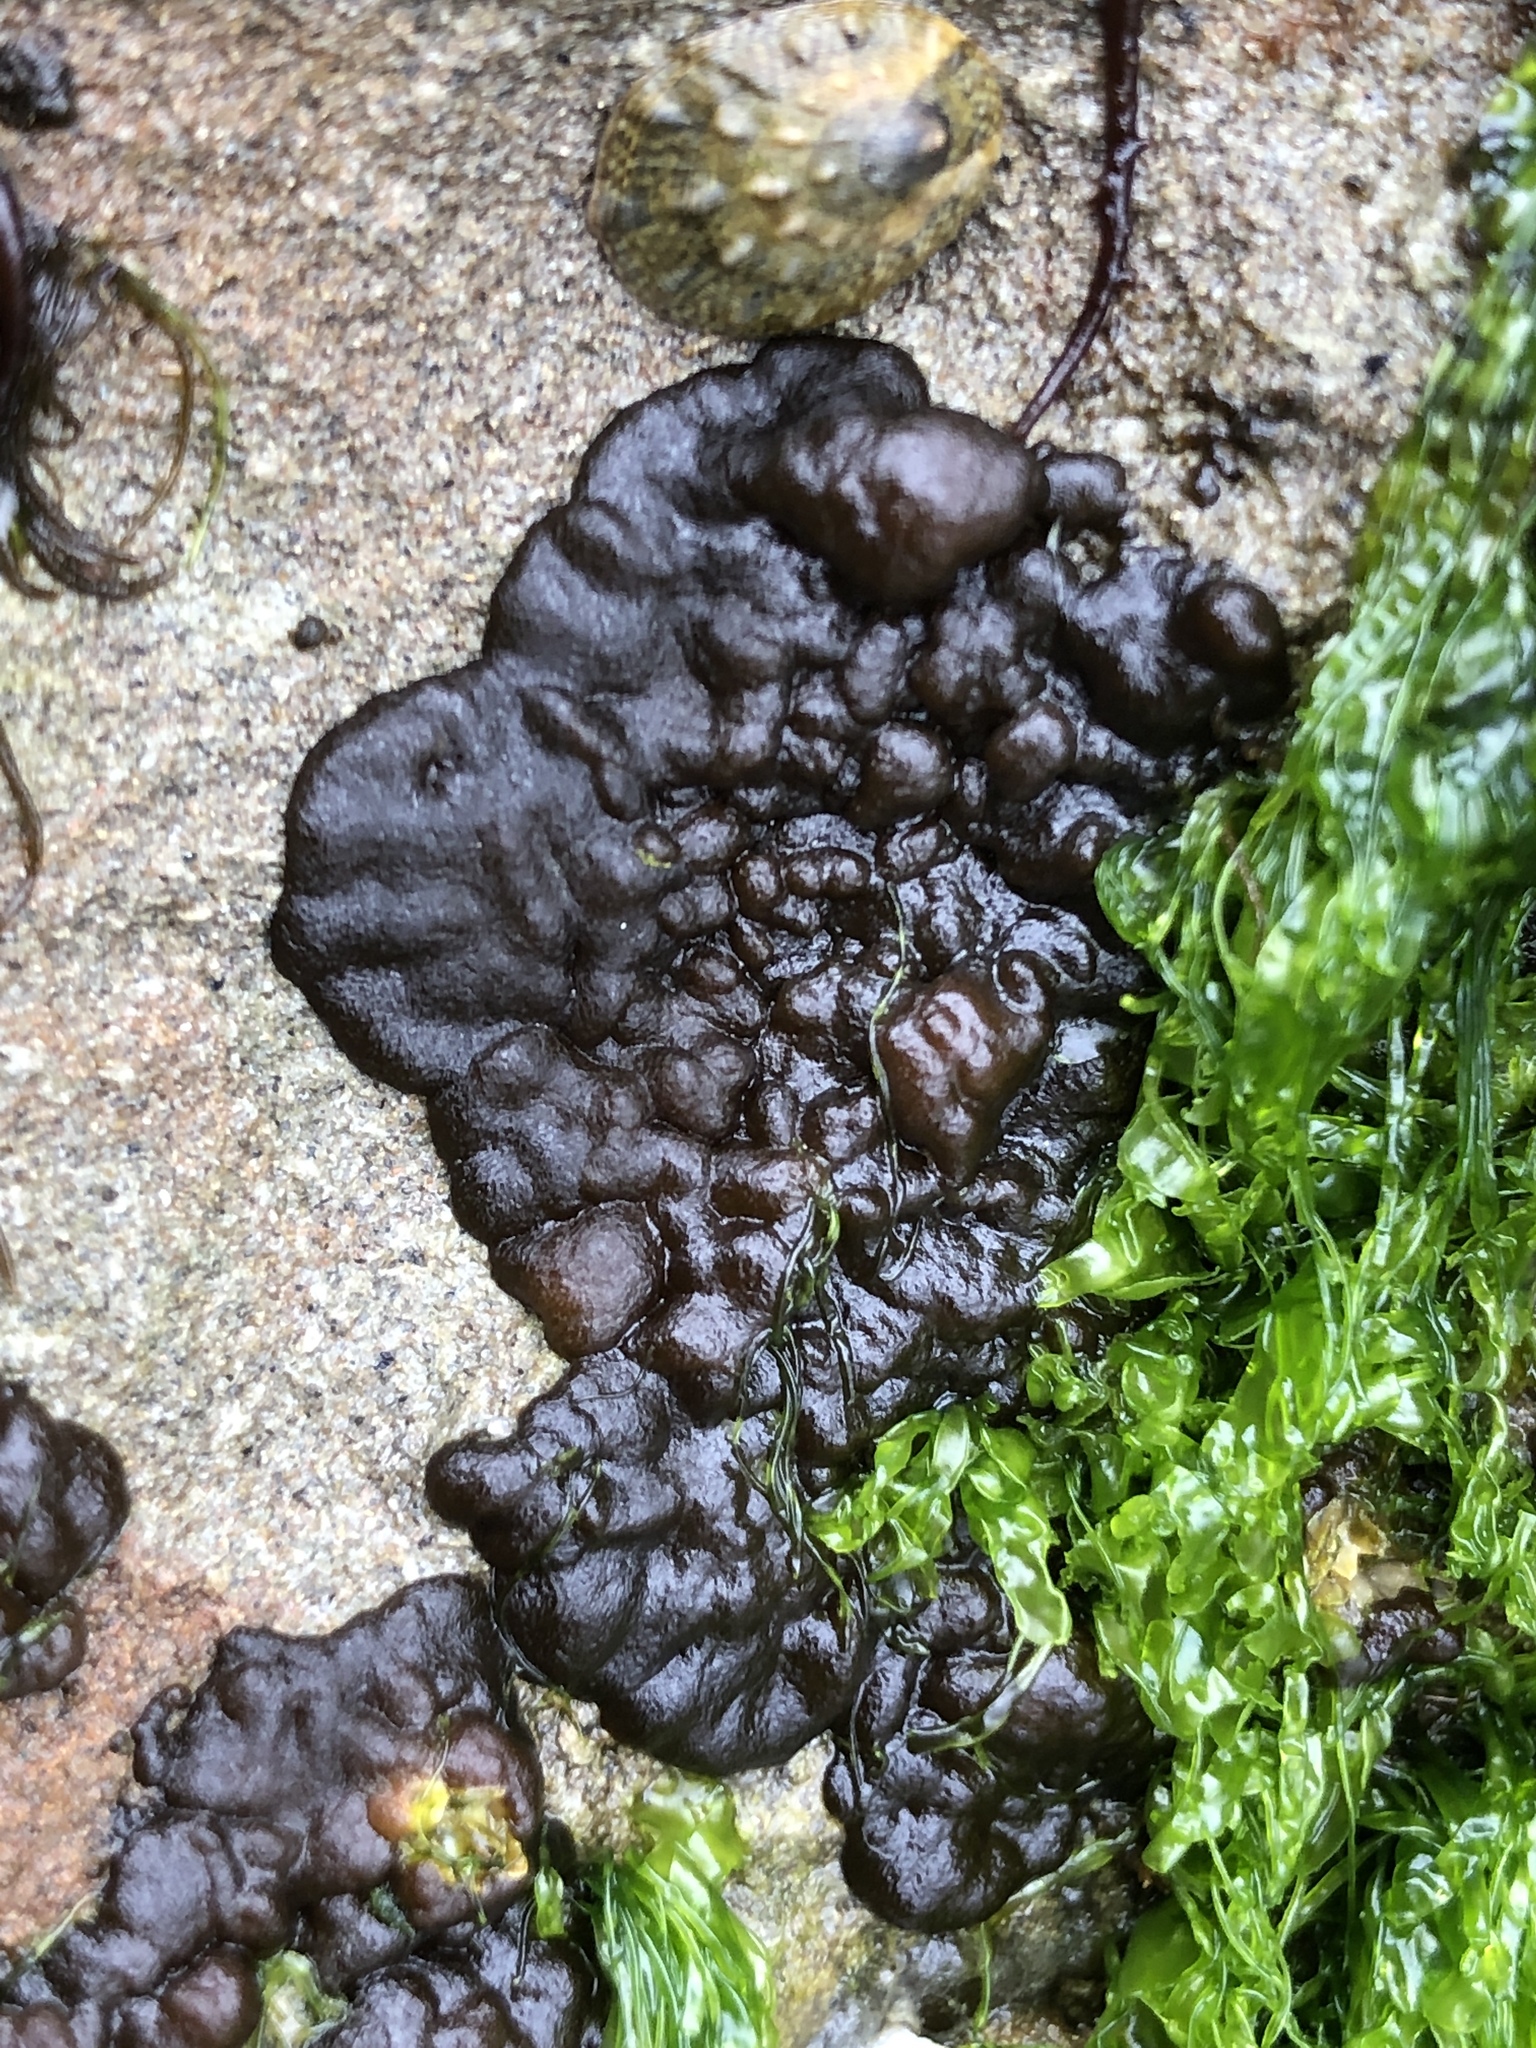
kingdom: Chromista
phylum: Ochrophyta
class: Phaeophyceae
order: Ectocarpales
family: Petrospongiaceae
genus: Petrospongium
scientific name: Petrospongium rugosum
